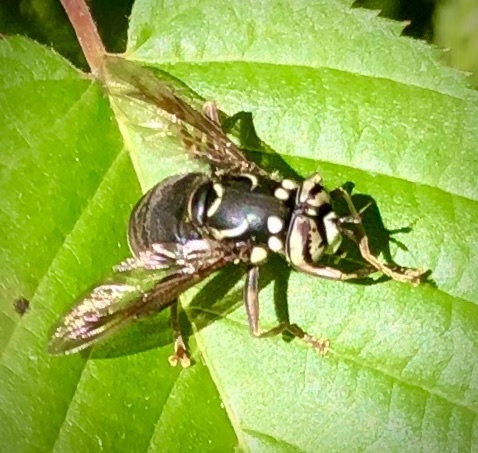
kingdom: Animalia
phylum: Arthropoda
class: Insecta
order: Diptera
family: Syrphidae
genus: Spilomyia
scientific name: Spilomyia fusca
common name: Bald-faced hornet fly
